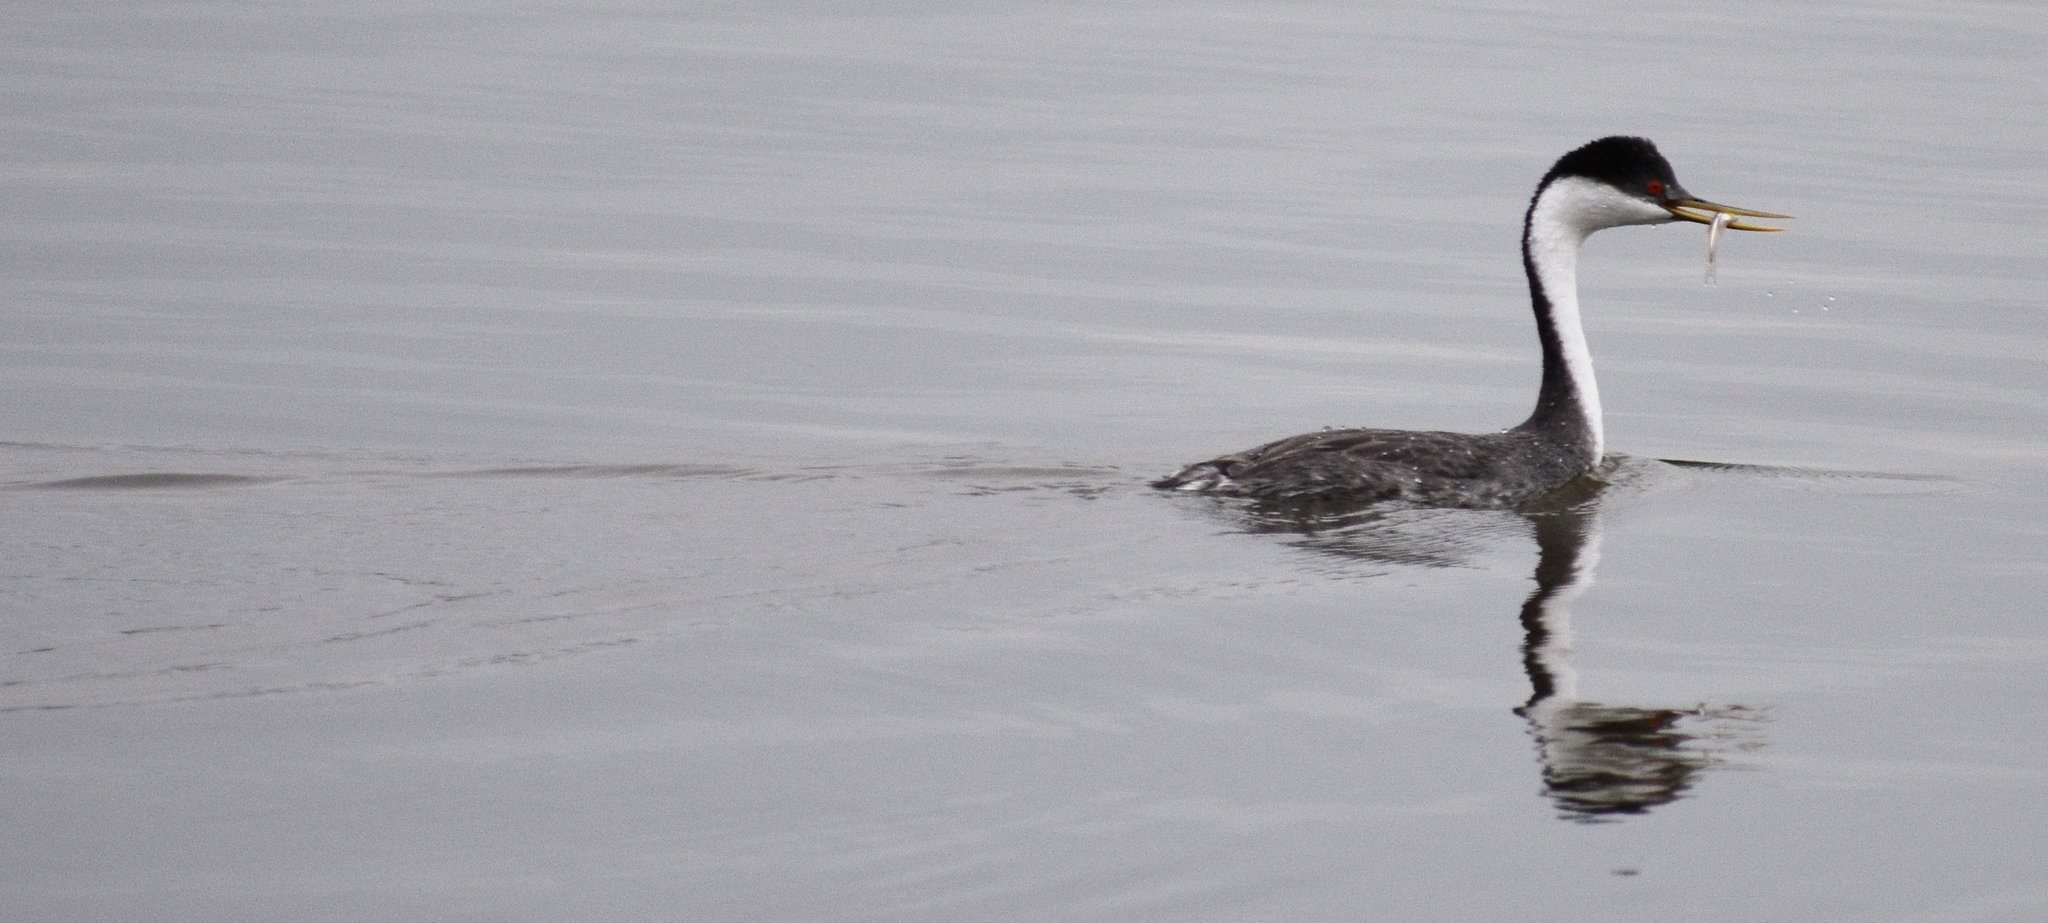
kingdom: Animalia
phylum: Chordata
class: Aves
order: Podicipediformes
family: Podicipedidae
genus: Aechmophorus
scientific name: Aechmophorus occidentalis
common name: Western grebe
